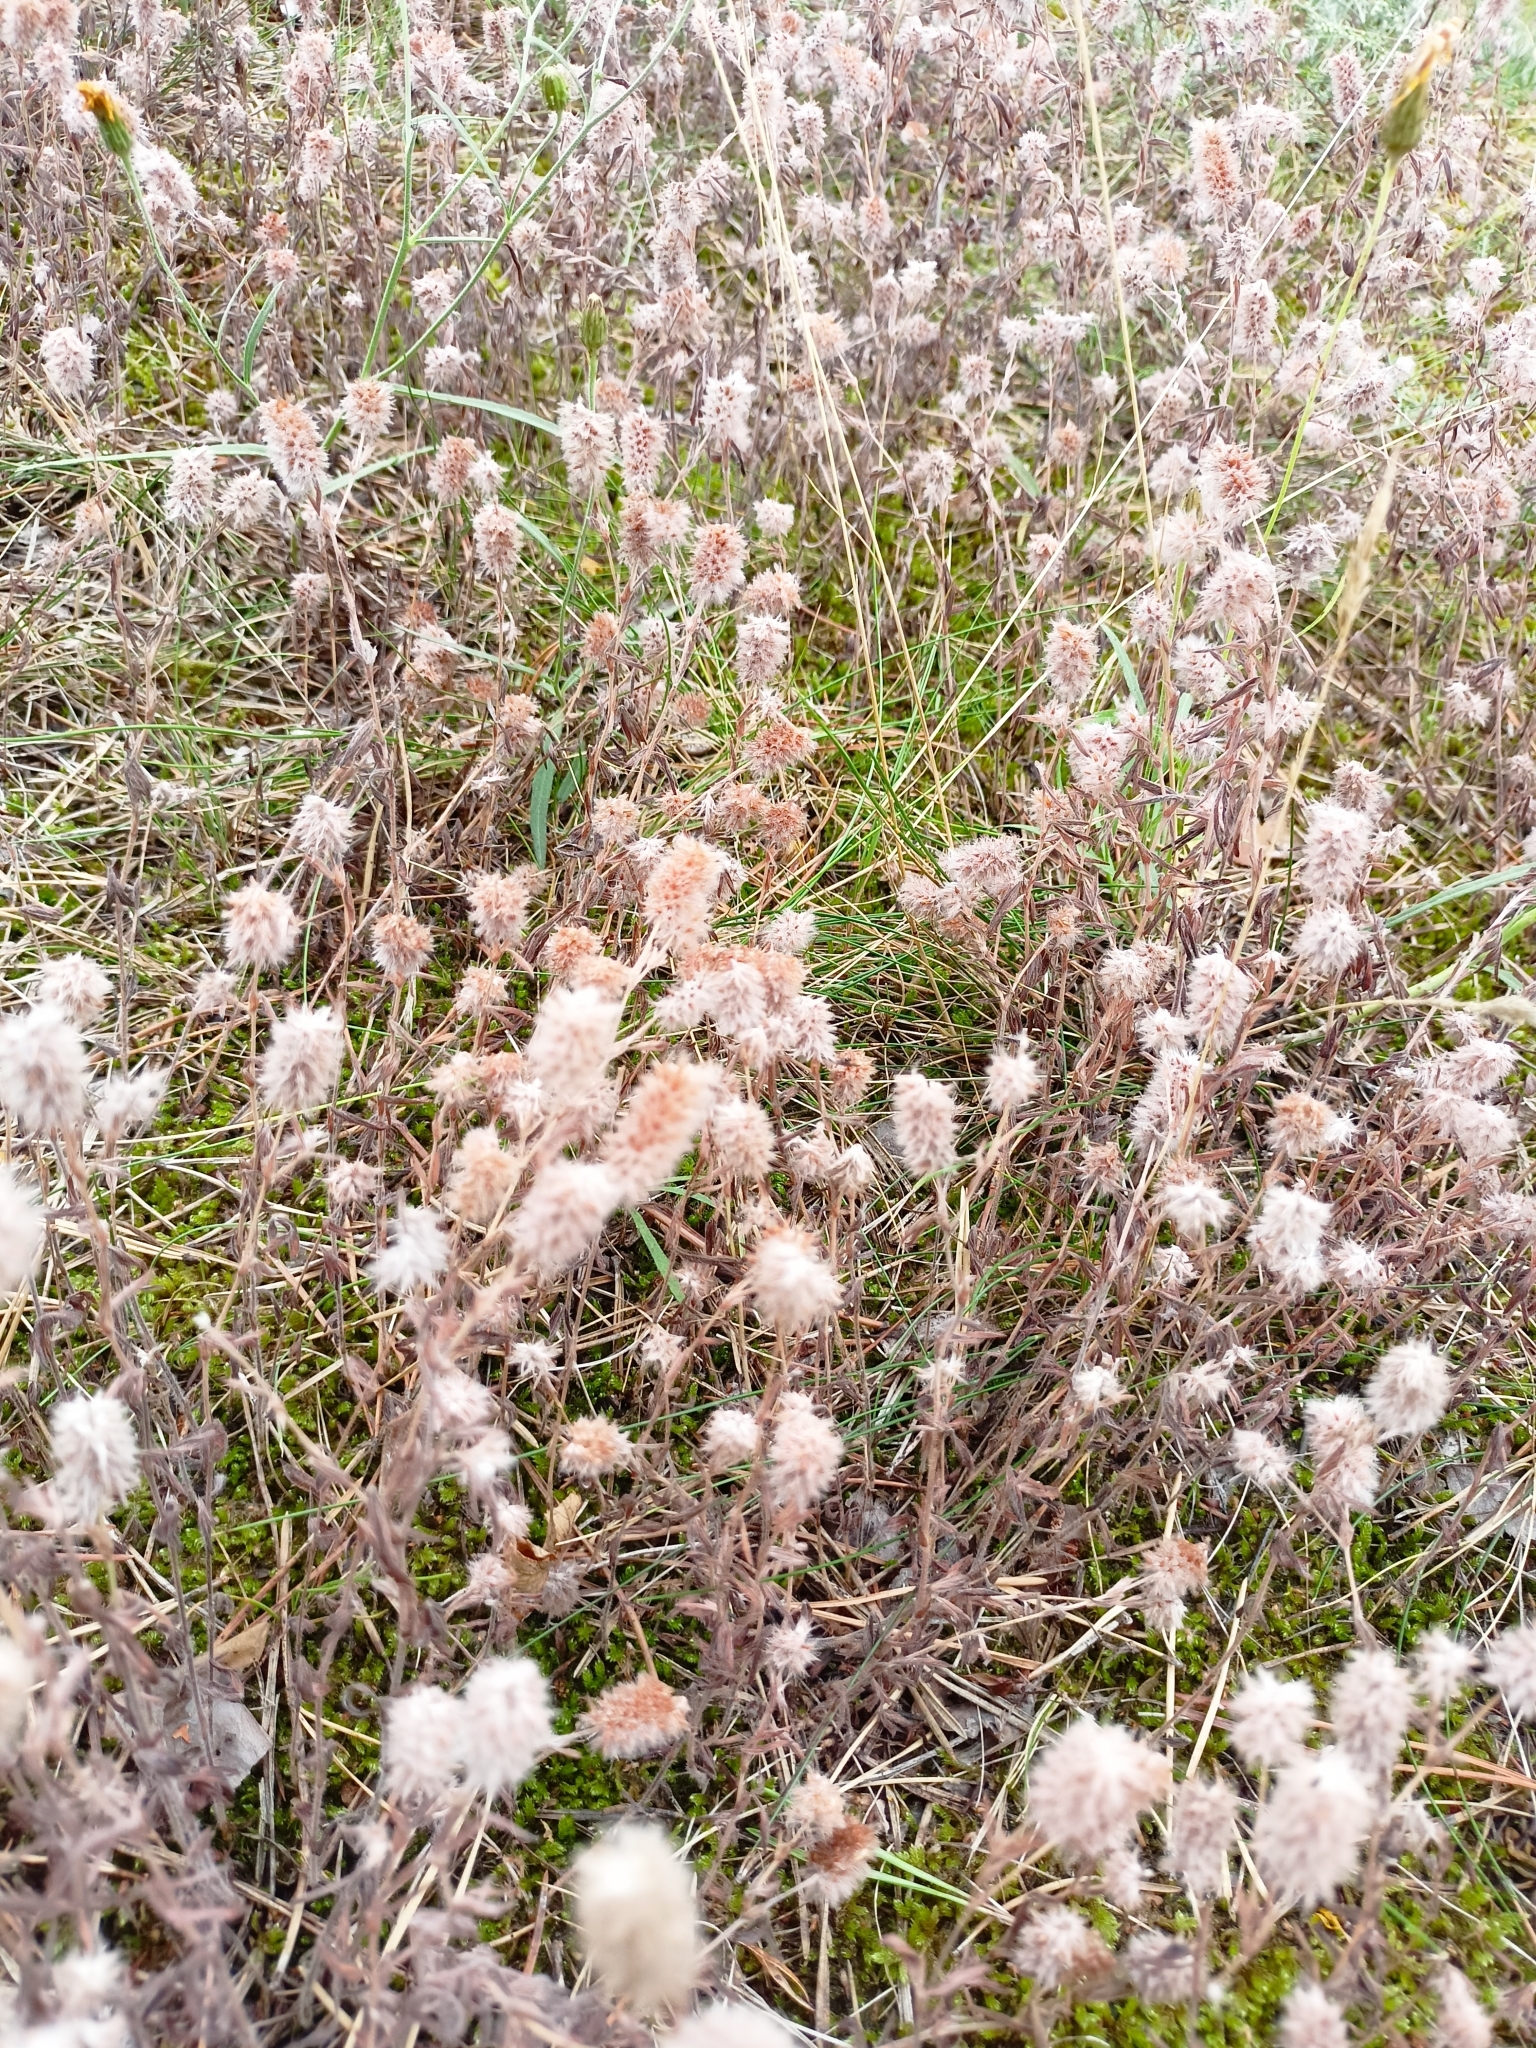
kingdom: Plantae
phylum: Tracheophyta
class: Magnoliopsida
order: Fabales
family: Fabaceae
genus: Trifolium
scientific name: Trifolium arvense
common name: Hare's-foot clover
